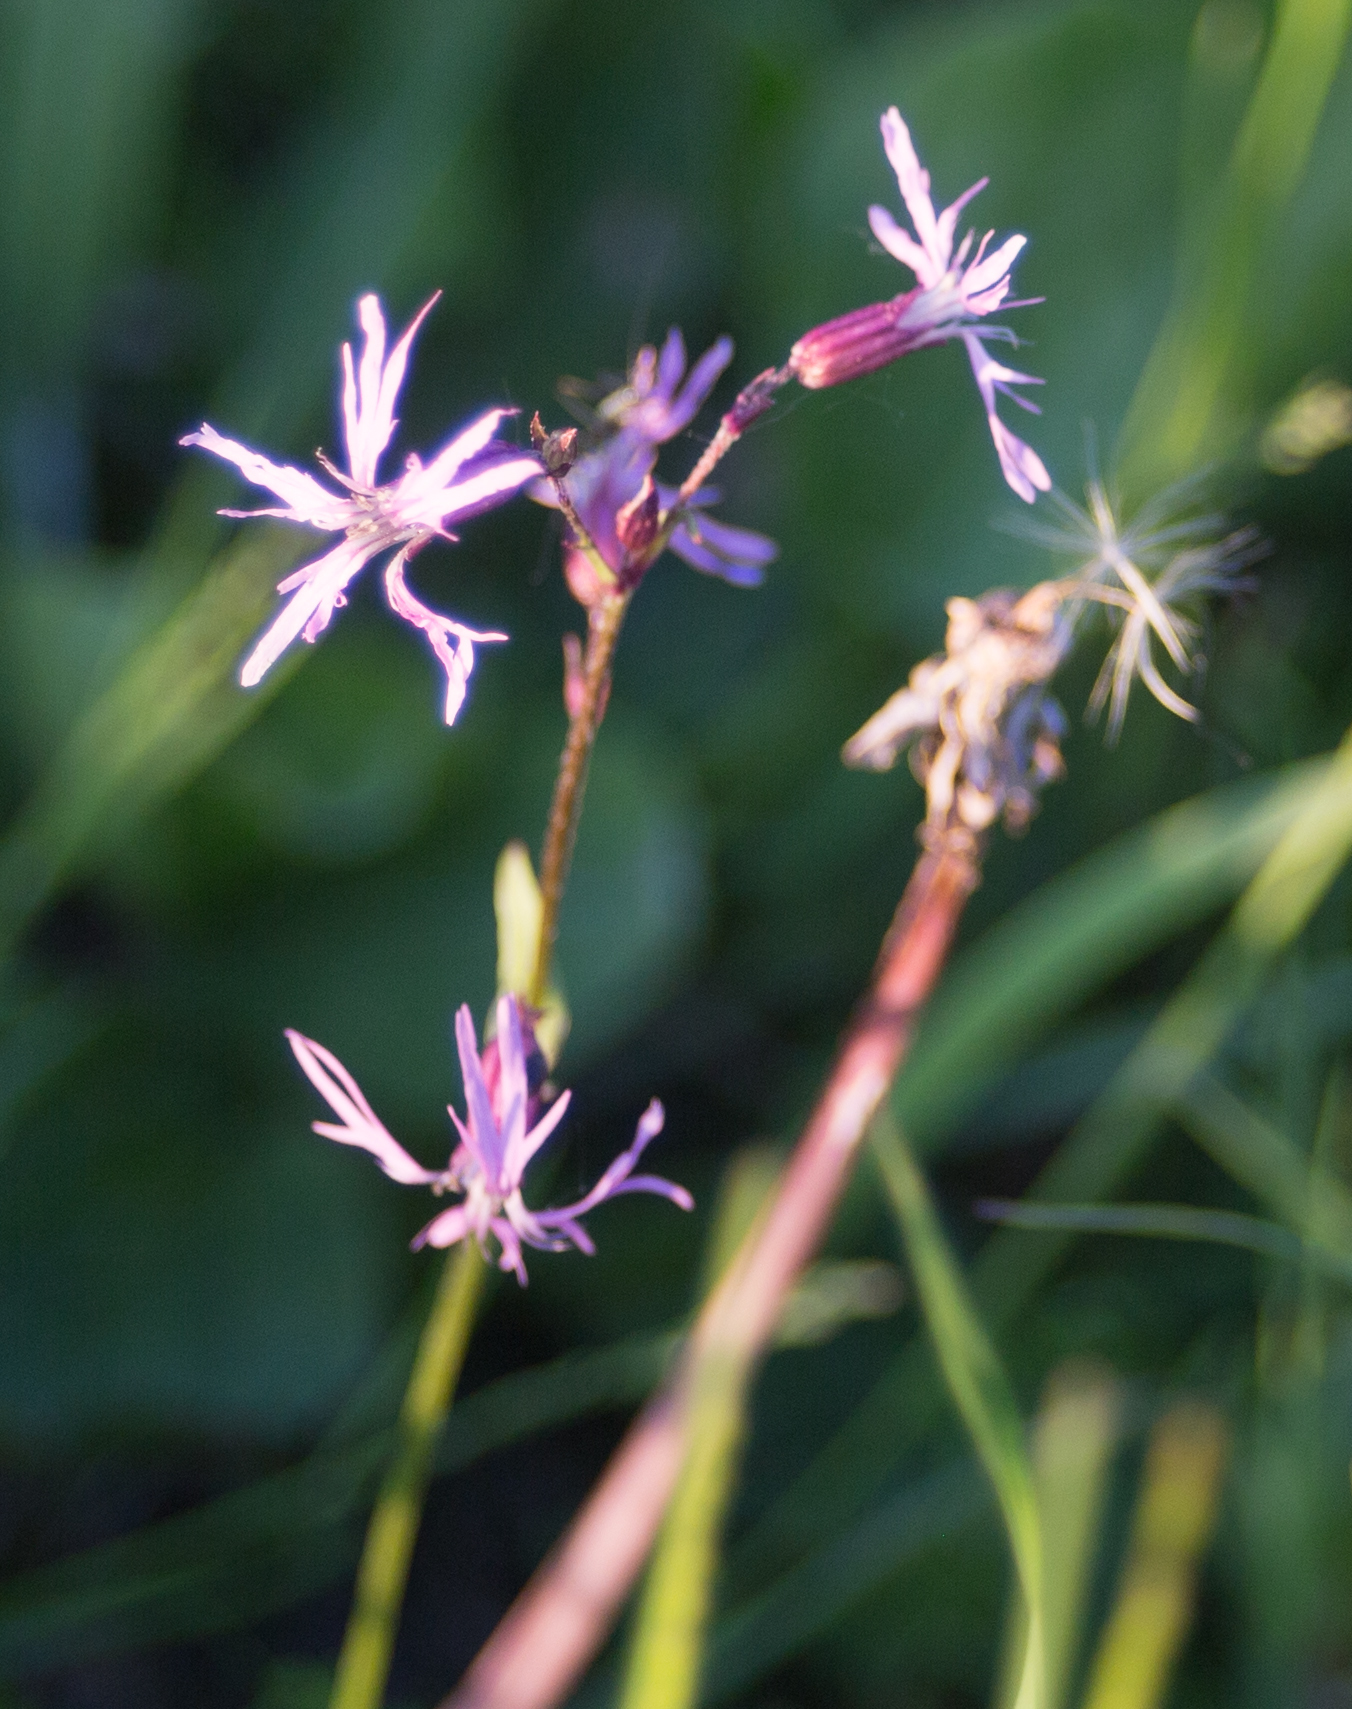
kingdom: Plantae
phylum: Tracheophyta
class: Magnoliopsida
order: Caryophyllales
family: Caryophyllaceae
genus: Silene
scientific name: Silene flos-cuculi
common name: Ragged-robin
